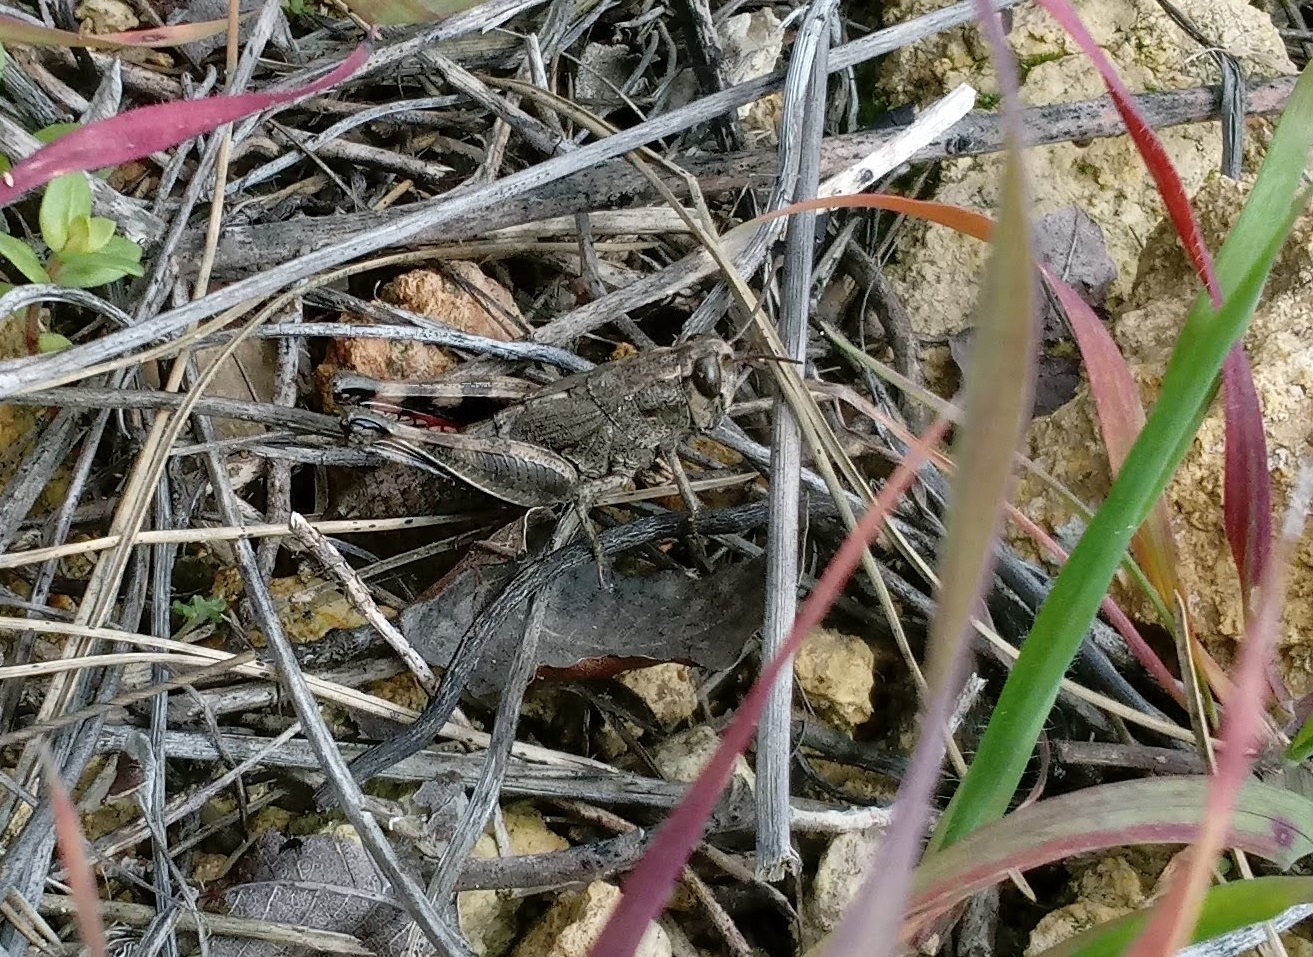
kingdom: Animalia
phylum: Arthropoda
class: Insecta
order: Orthoptera
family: Acrididae
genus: Heteracris
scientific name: Heteracris syriaca
